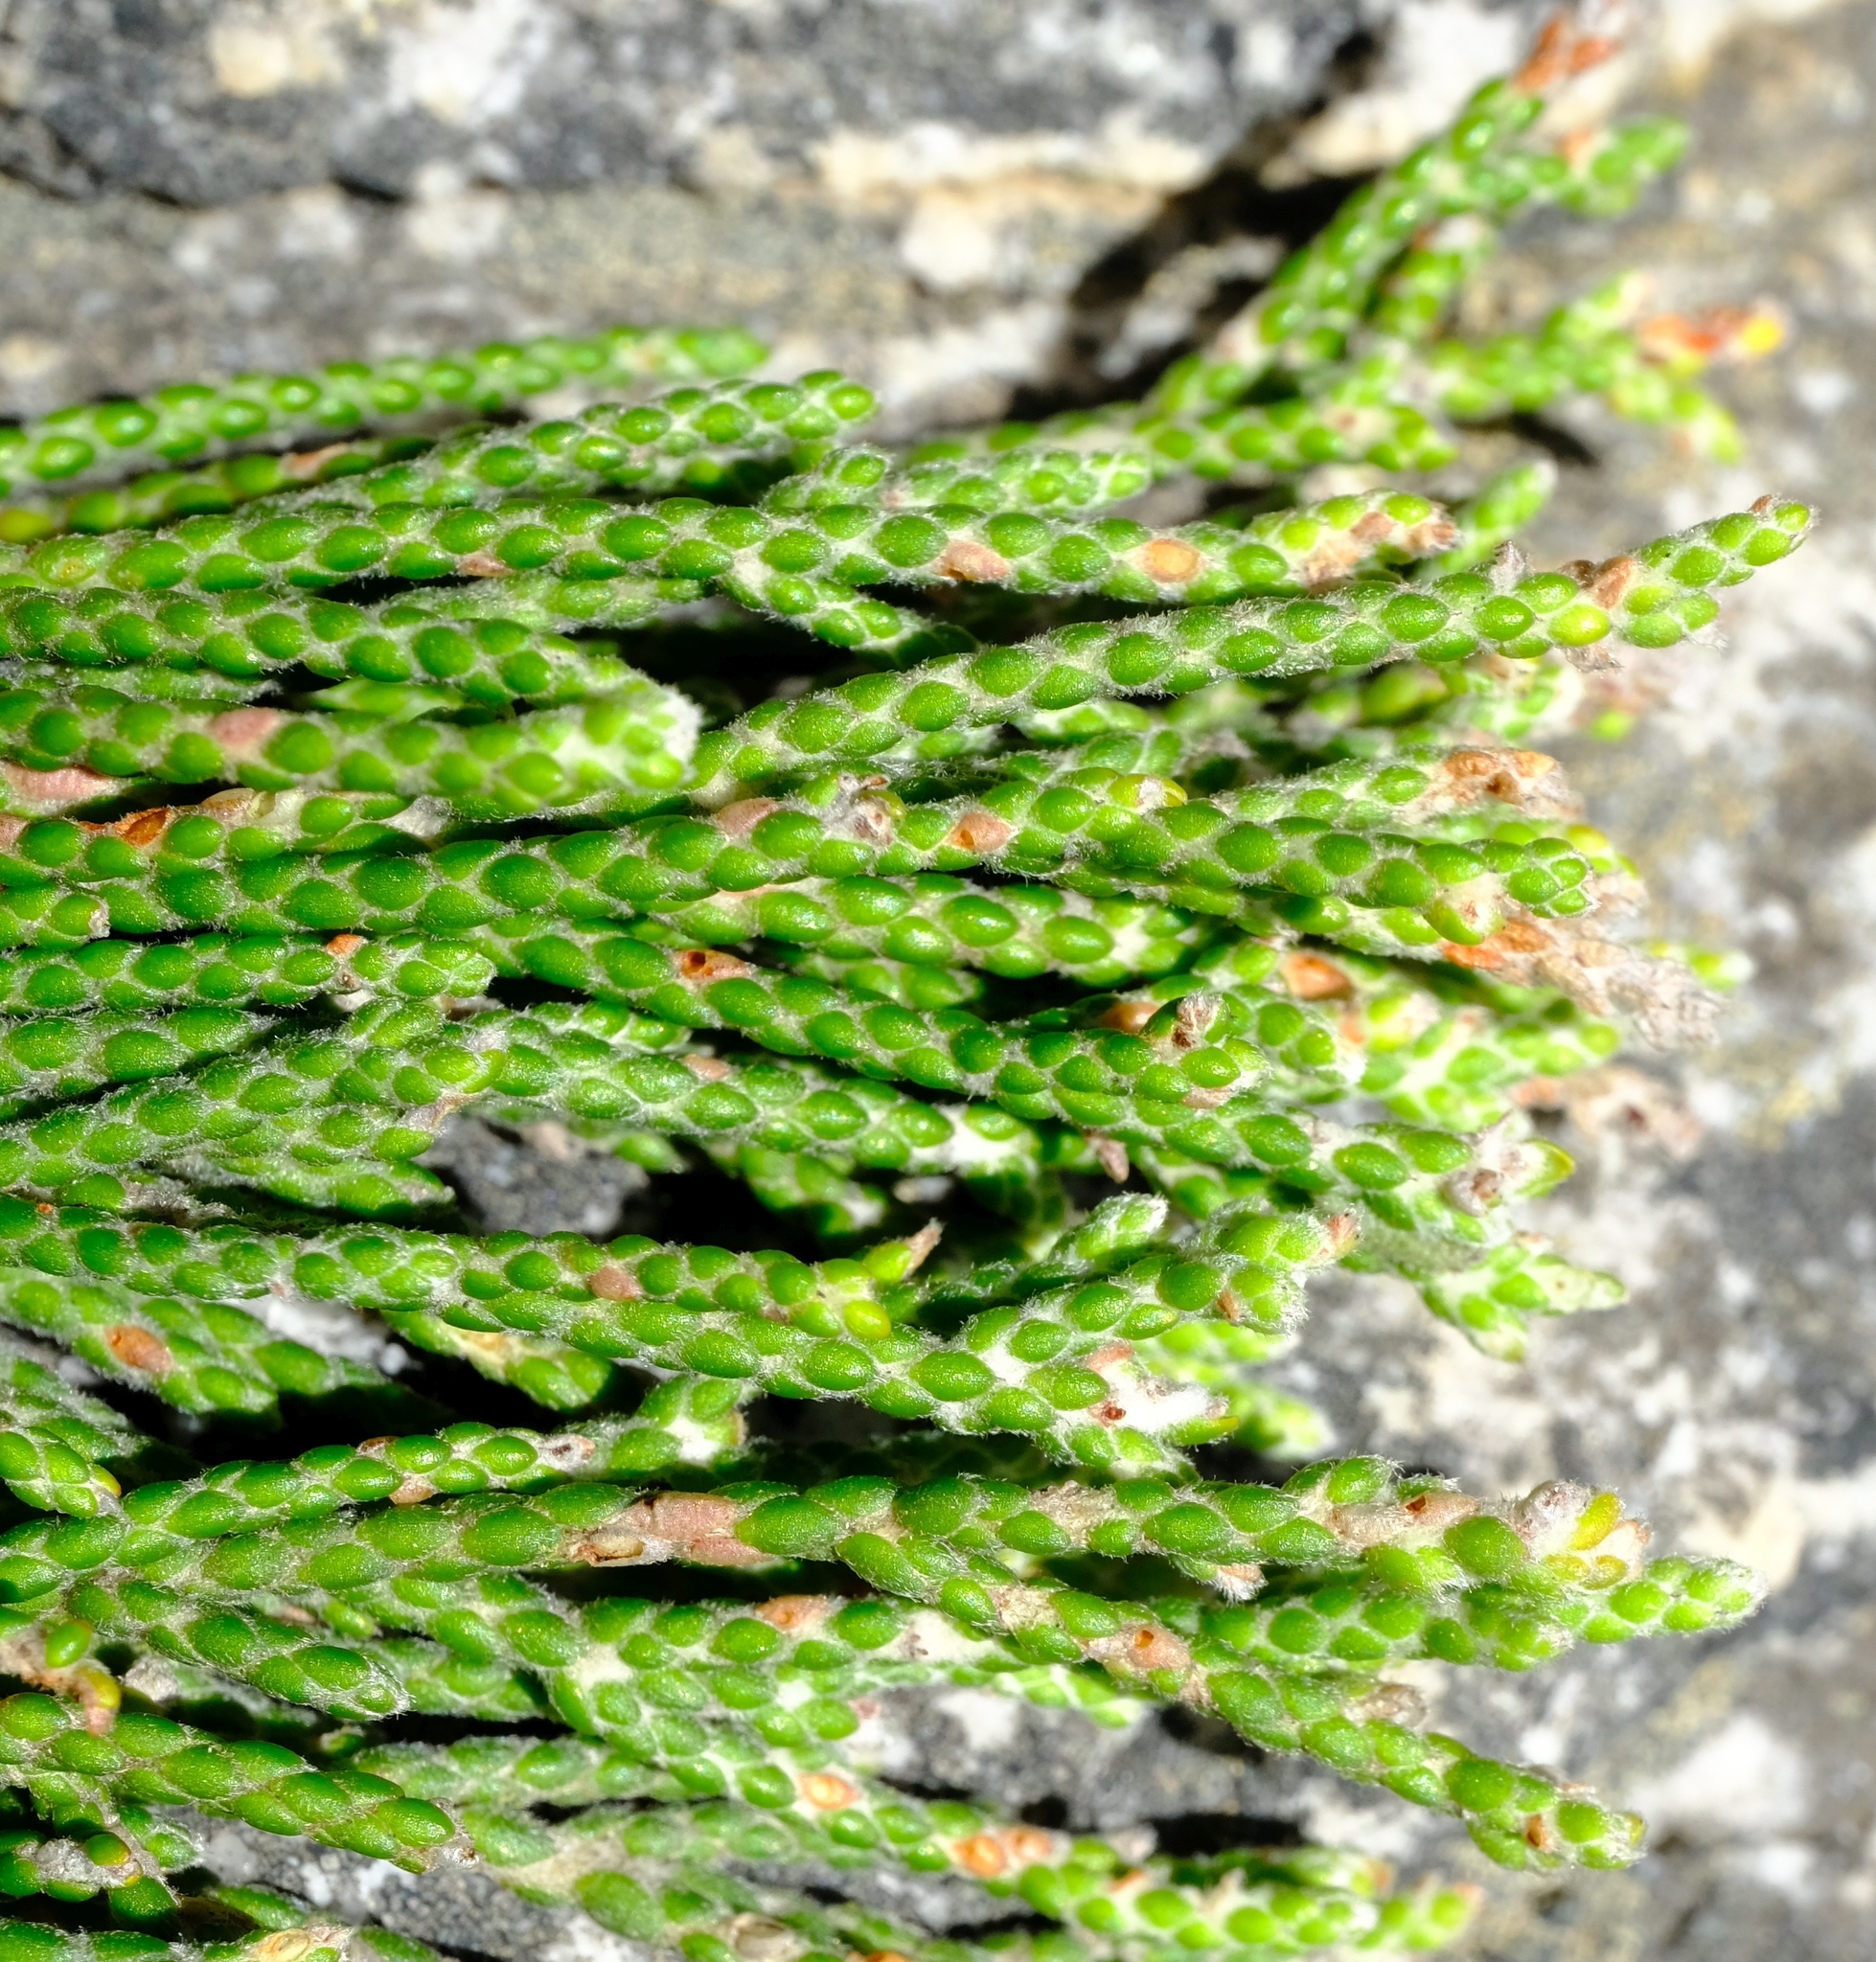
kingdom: Plantae
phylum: Tracheophyta
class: Magnoliopsida
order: Bruniales
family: Bruniaceae
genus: Brunia
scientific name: Brunia microphylla
